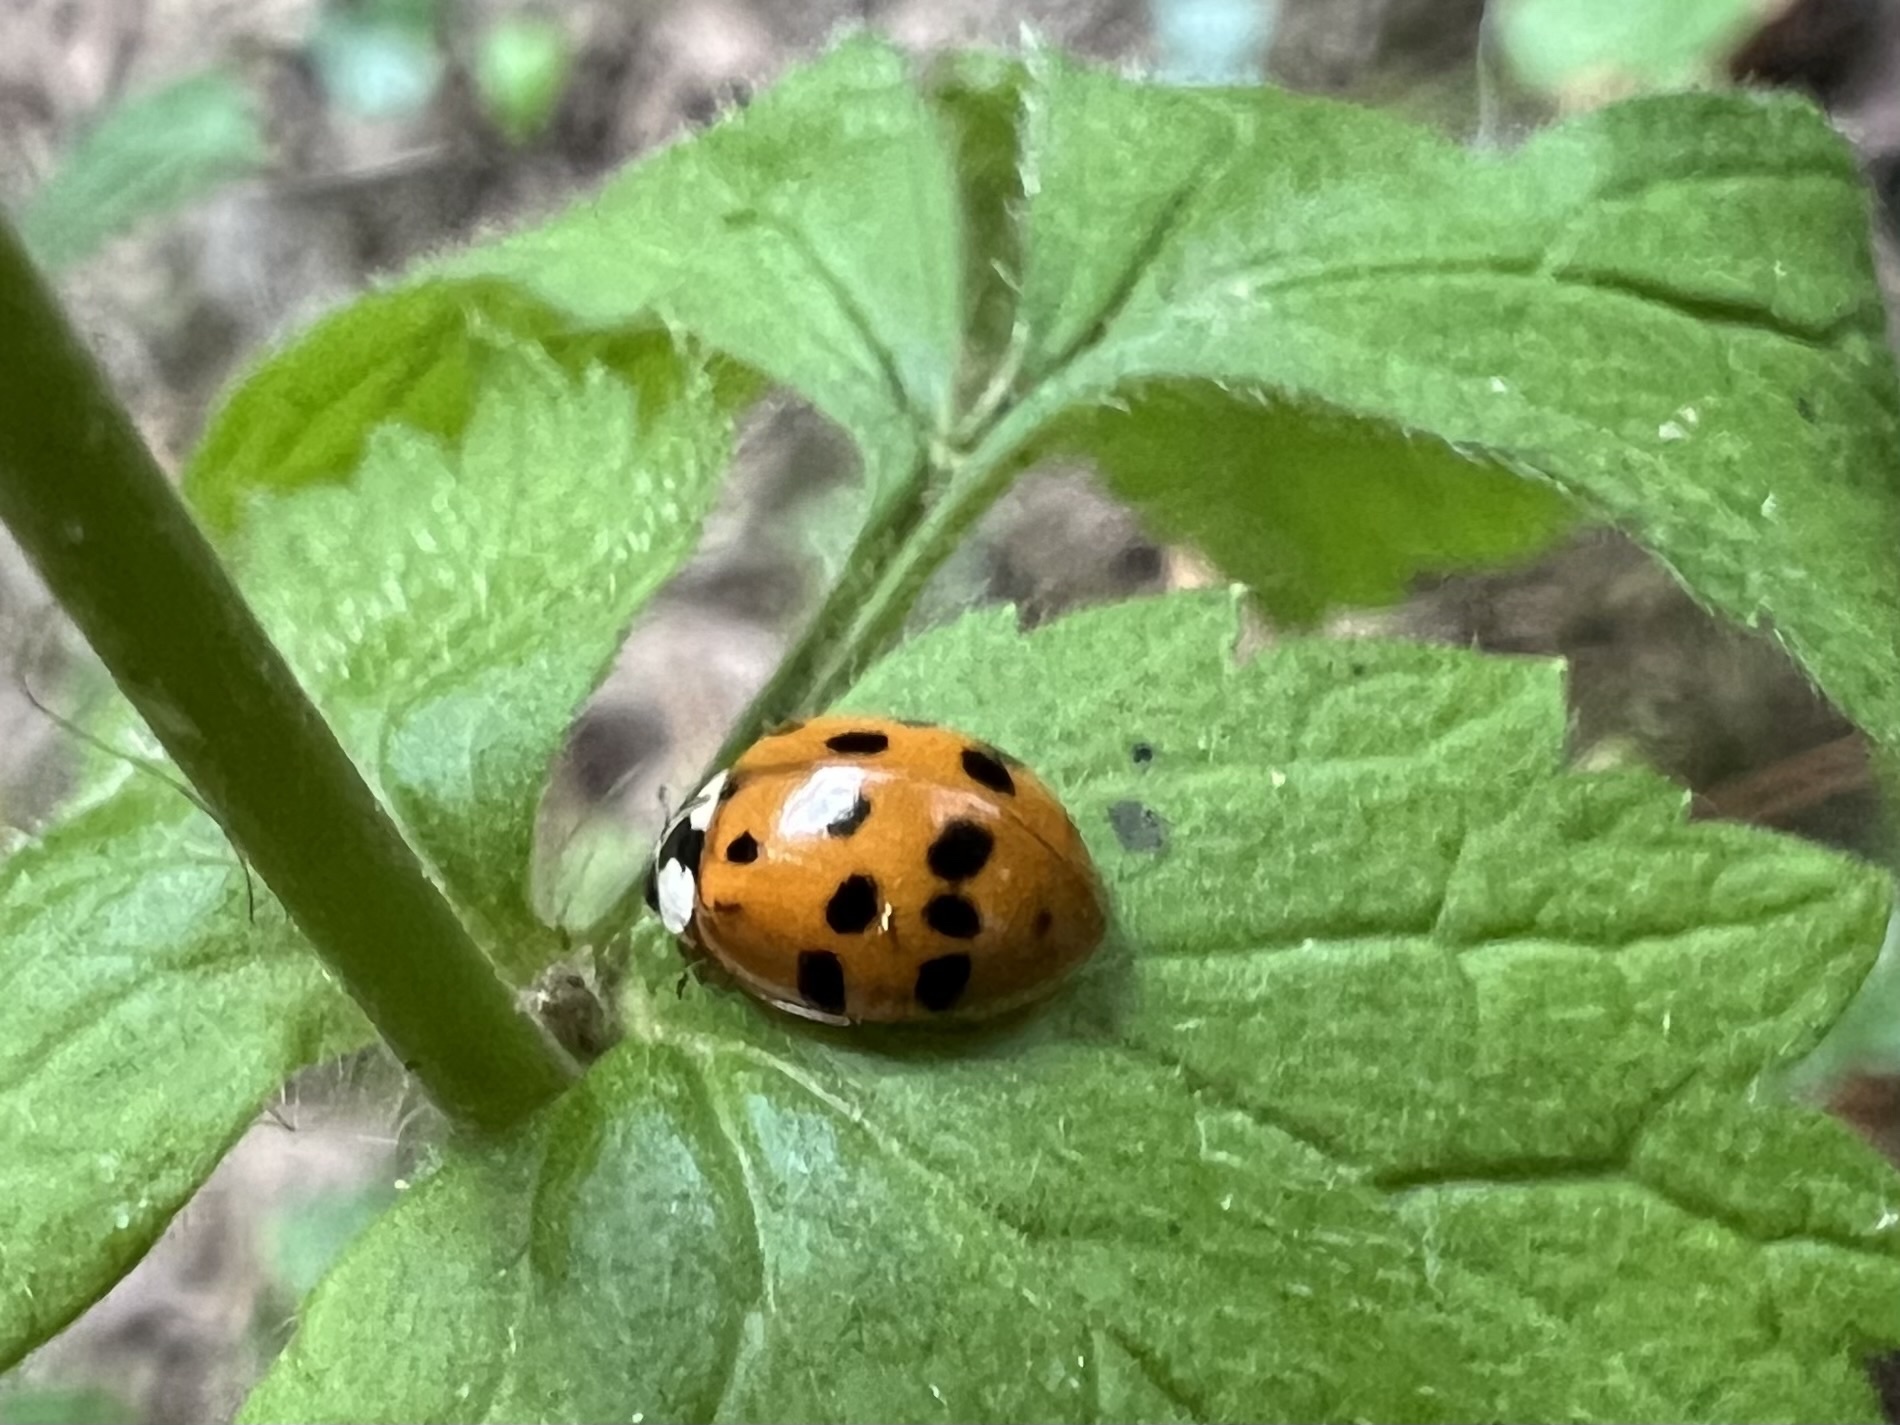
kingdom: Animalia
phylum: Arthropoda
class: Insecta
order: Coleoptera
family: Coccinellidae
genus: Harmonia
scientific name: Harmonia axyridis
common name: Harlequin ladybird
